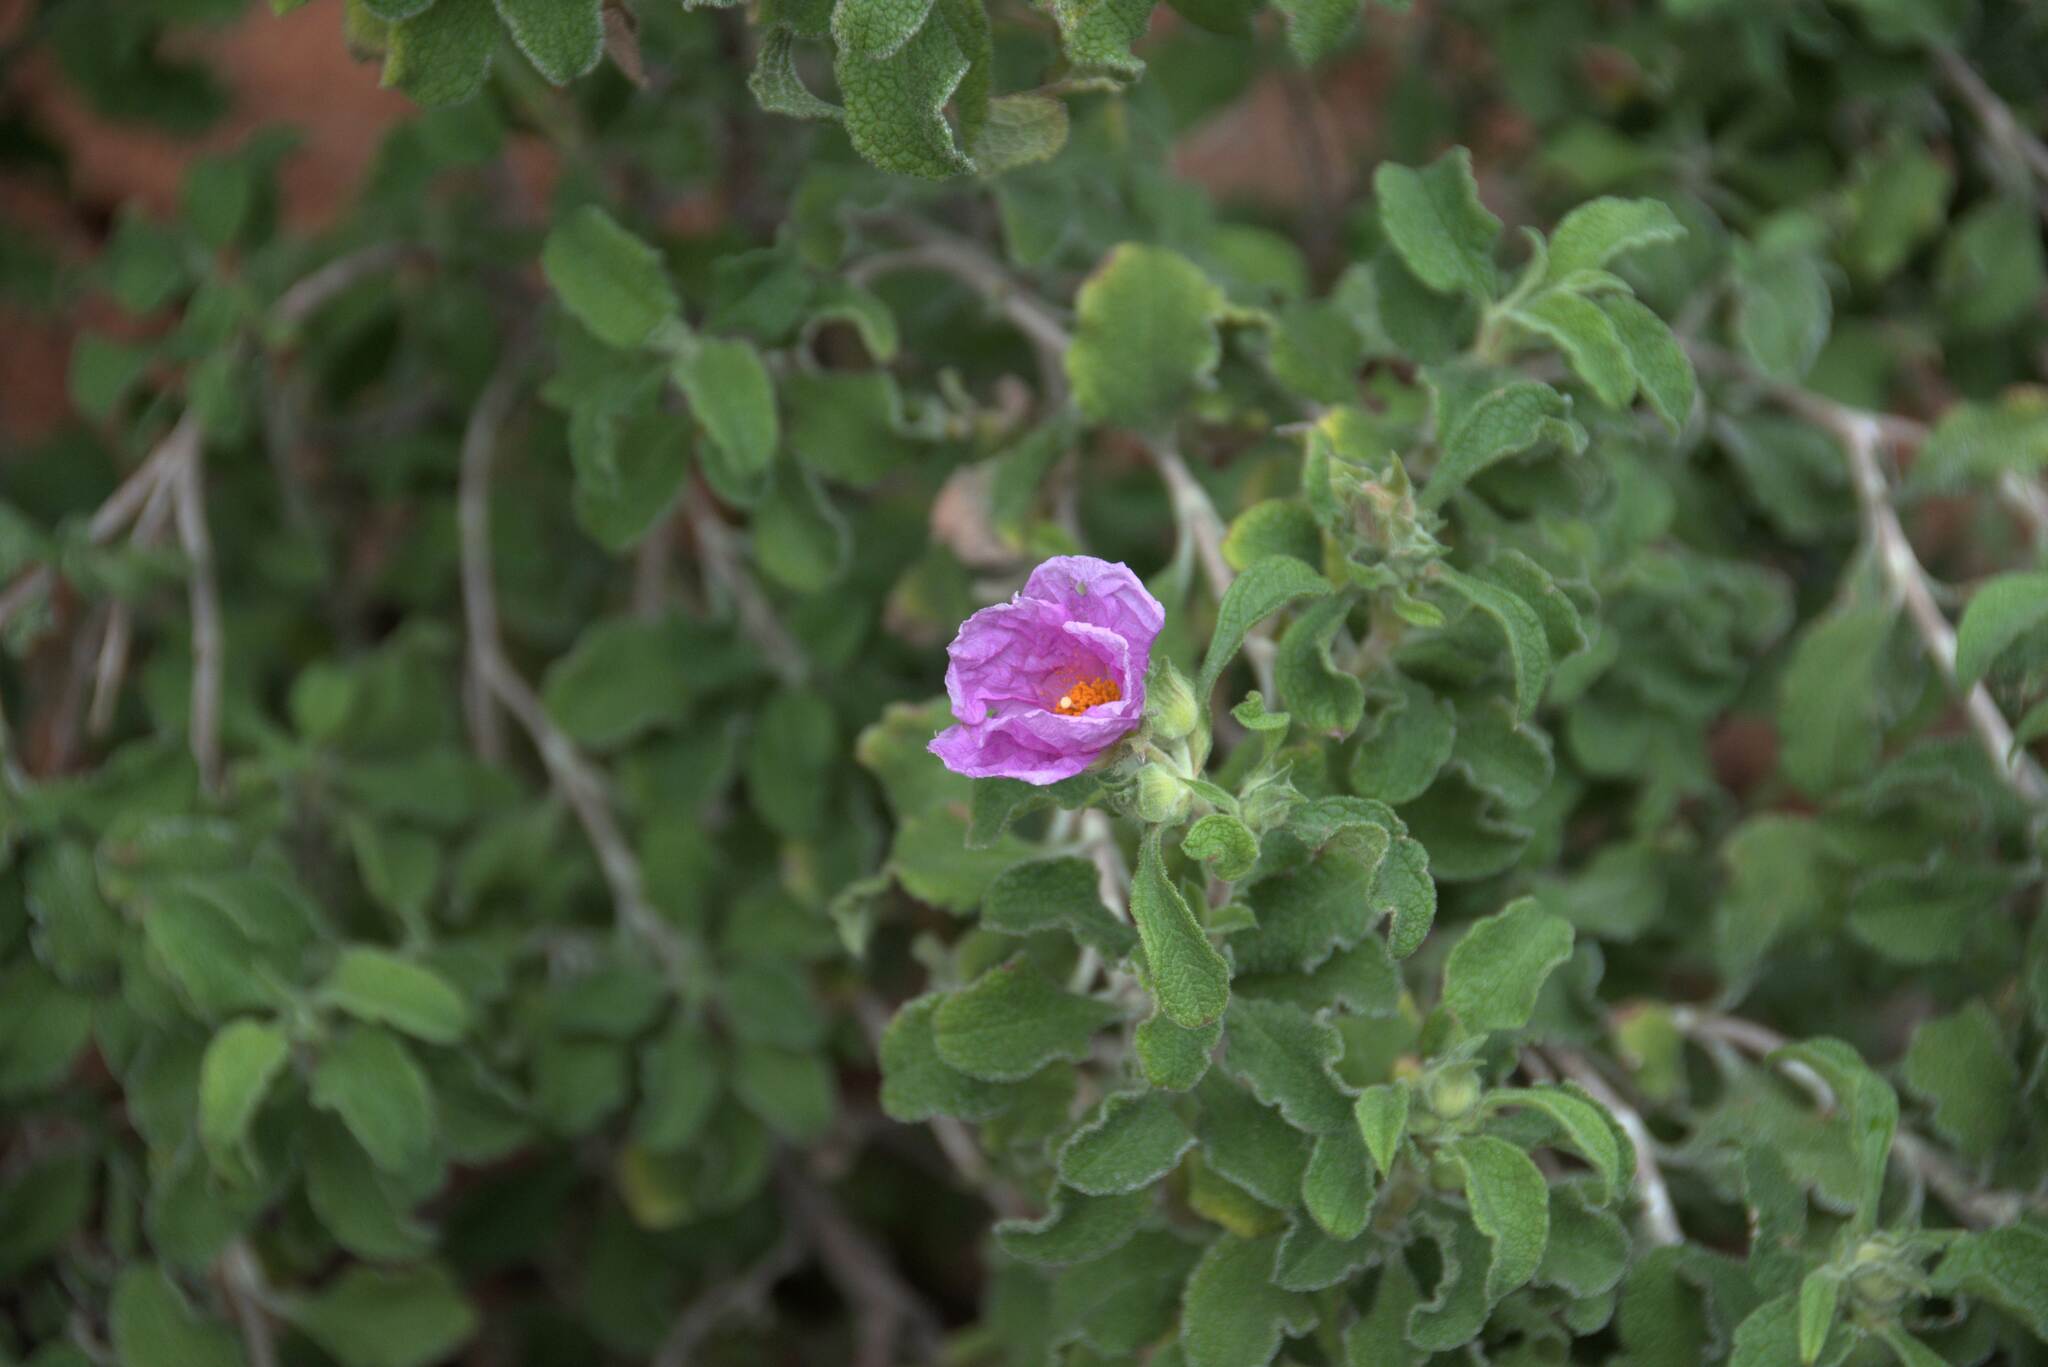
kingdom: Plantae
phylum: Tracheophyta
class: Magnoliopsida
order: Malvales
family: Cistaceae
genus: Cistus
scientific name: Cistus creticus
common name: Cretan rockrose
